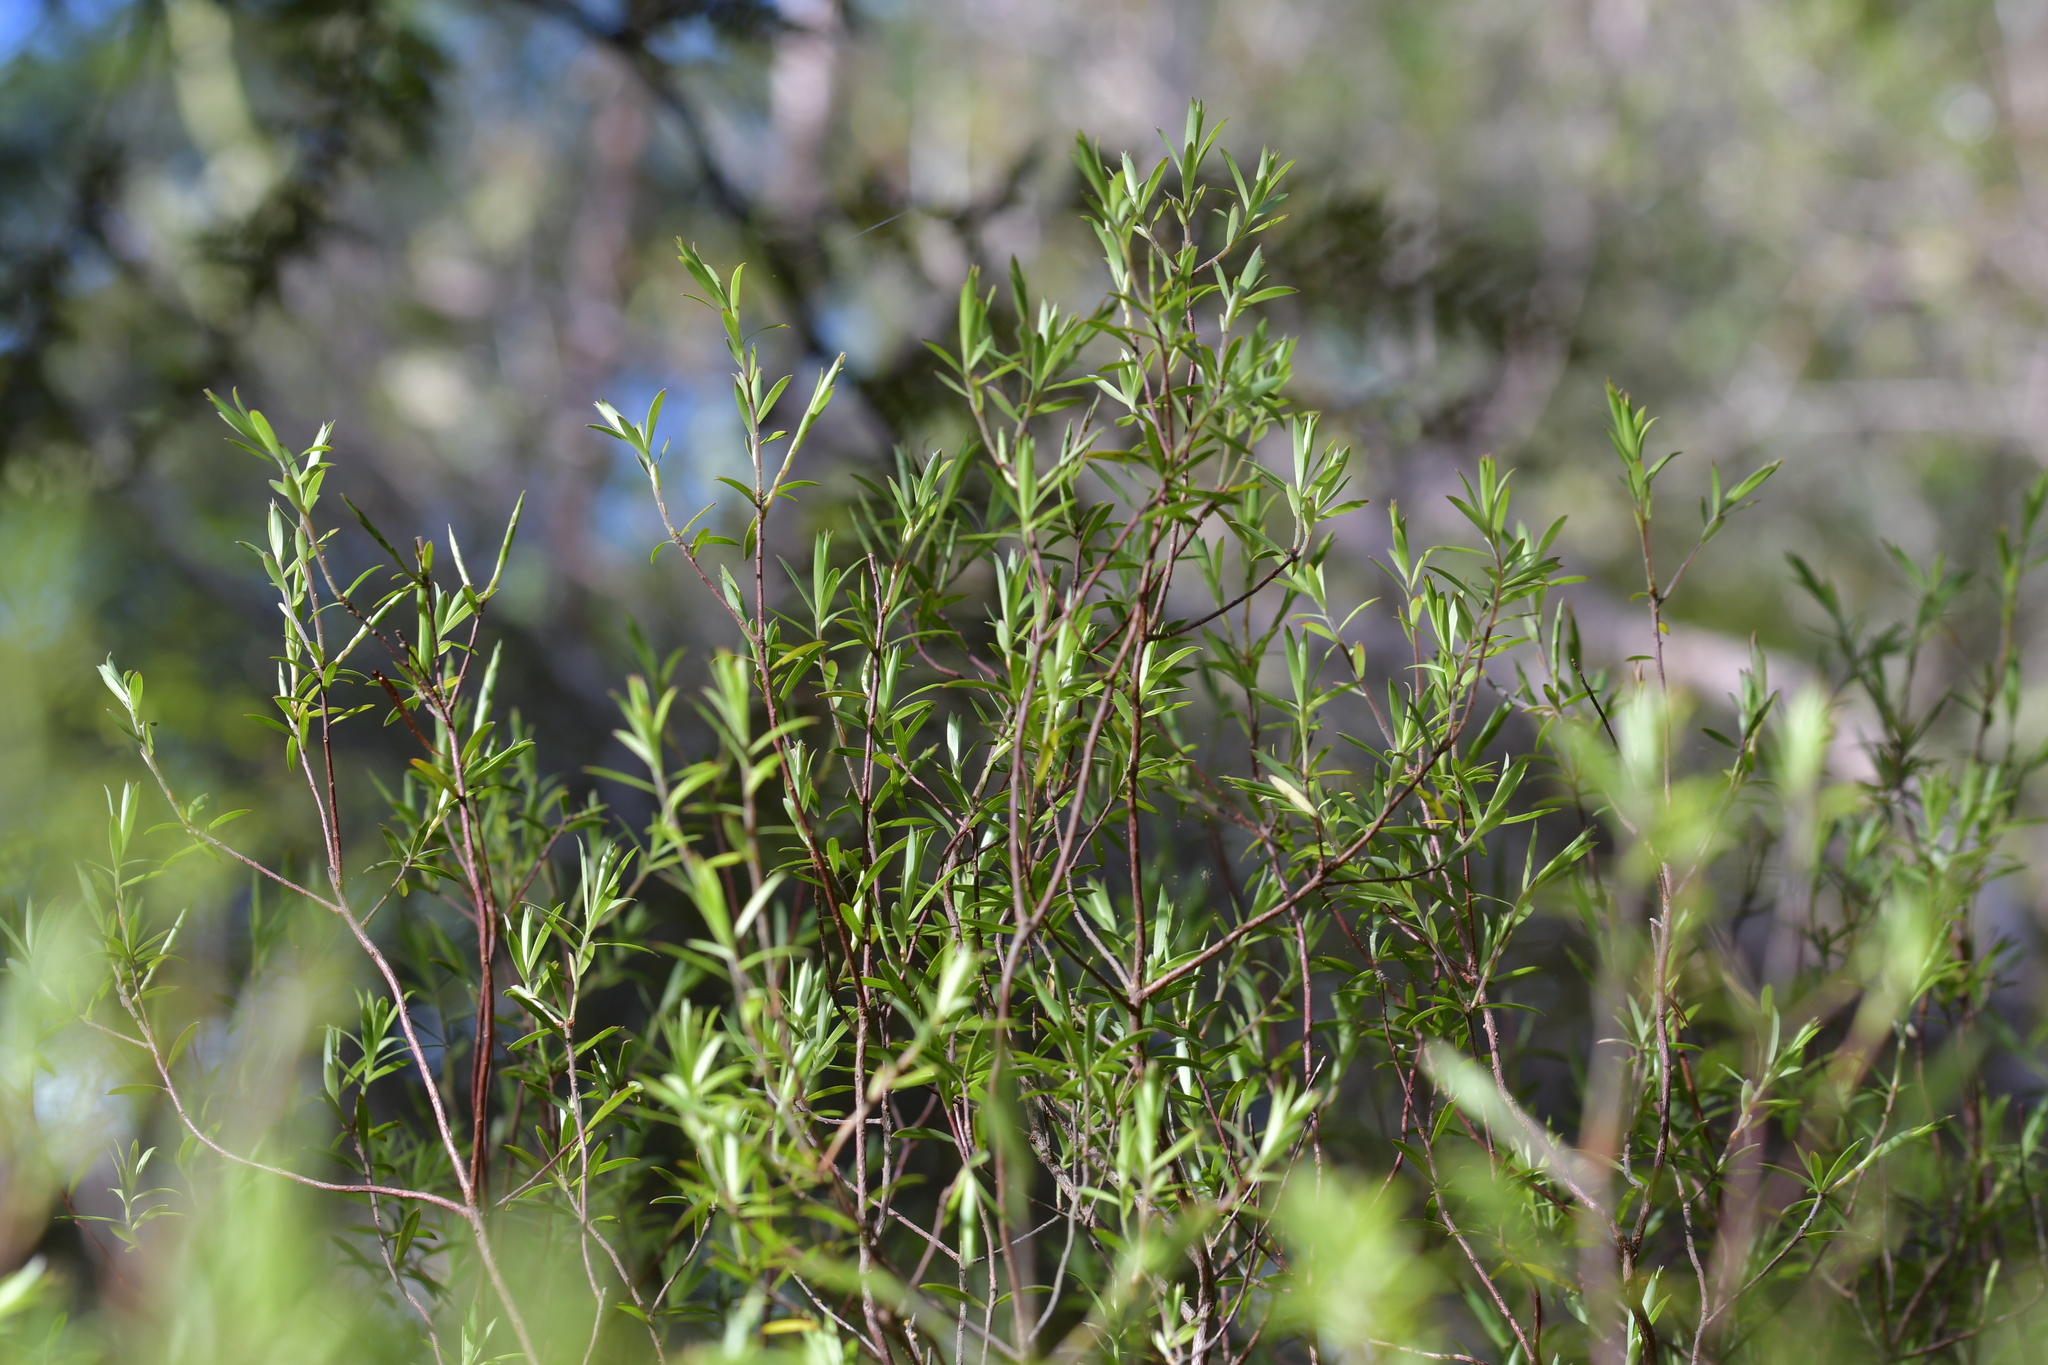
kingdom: Plantae
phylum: Tracheophyta
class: Magnoliopsida
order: Ericales
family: Ericaceae
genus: Leucopogon
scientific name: Leucopogon fasciculatus
